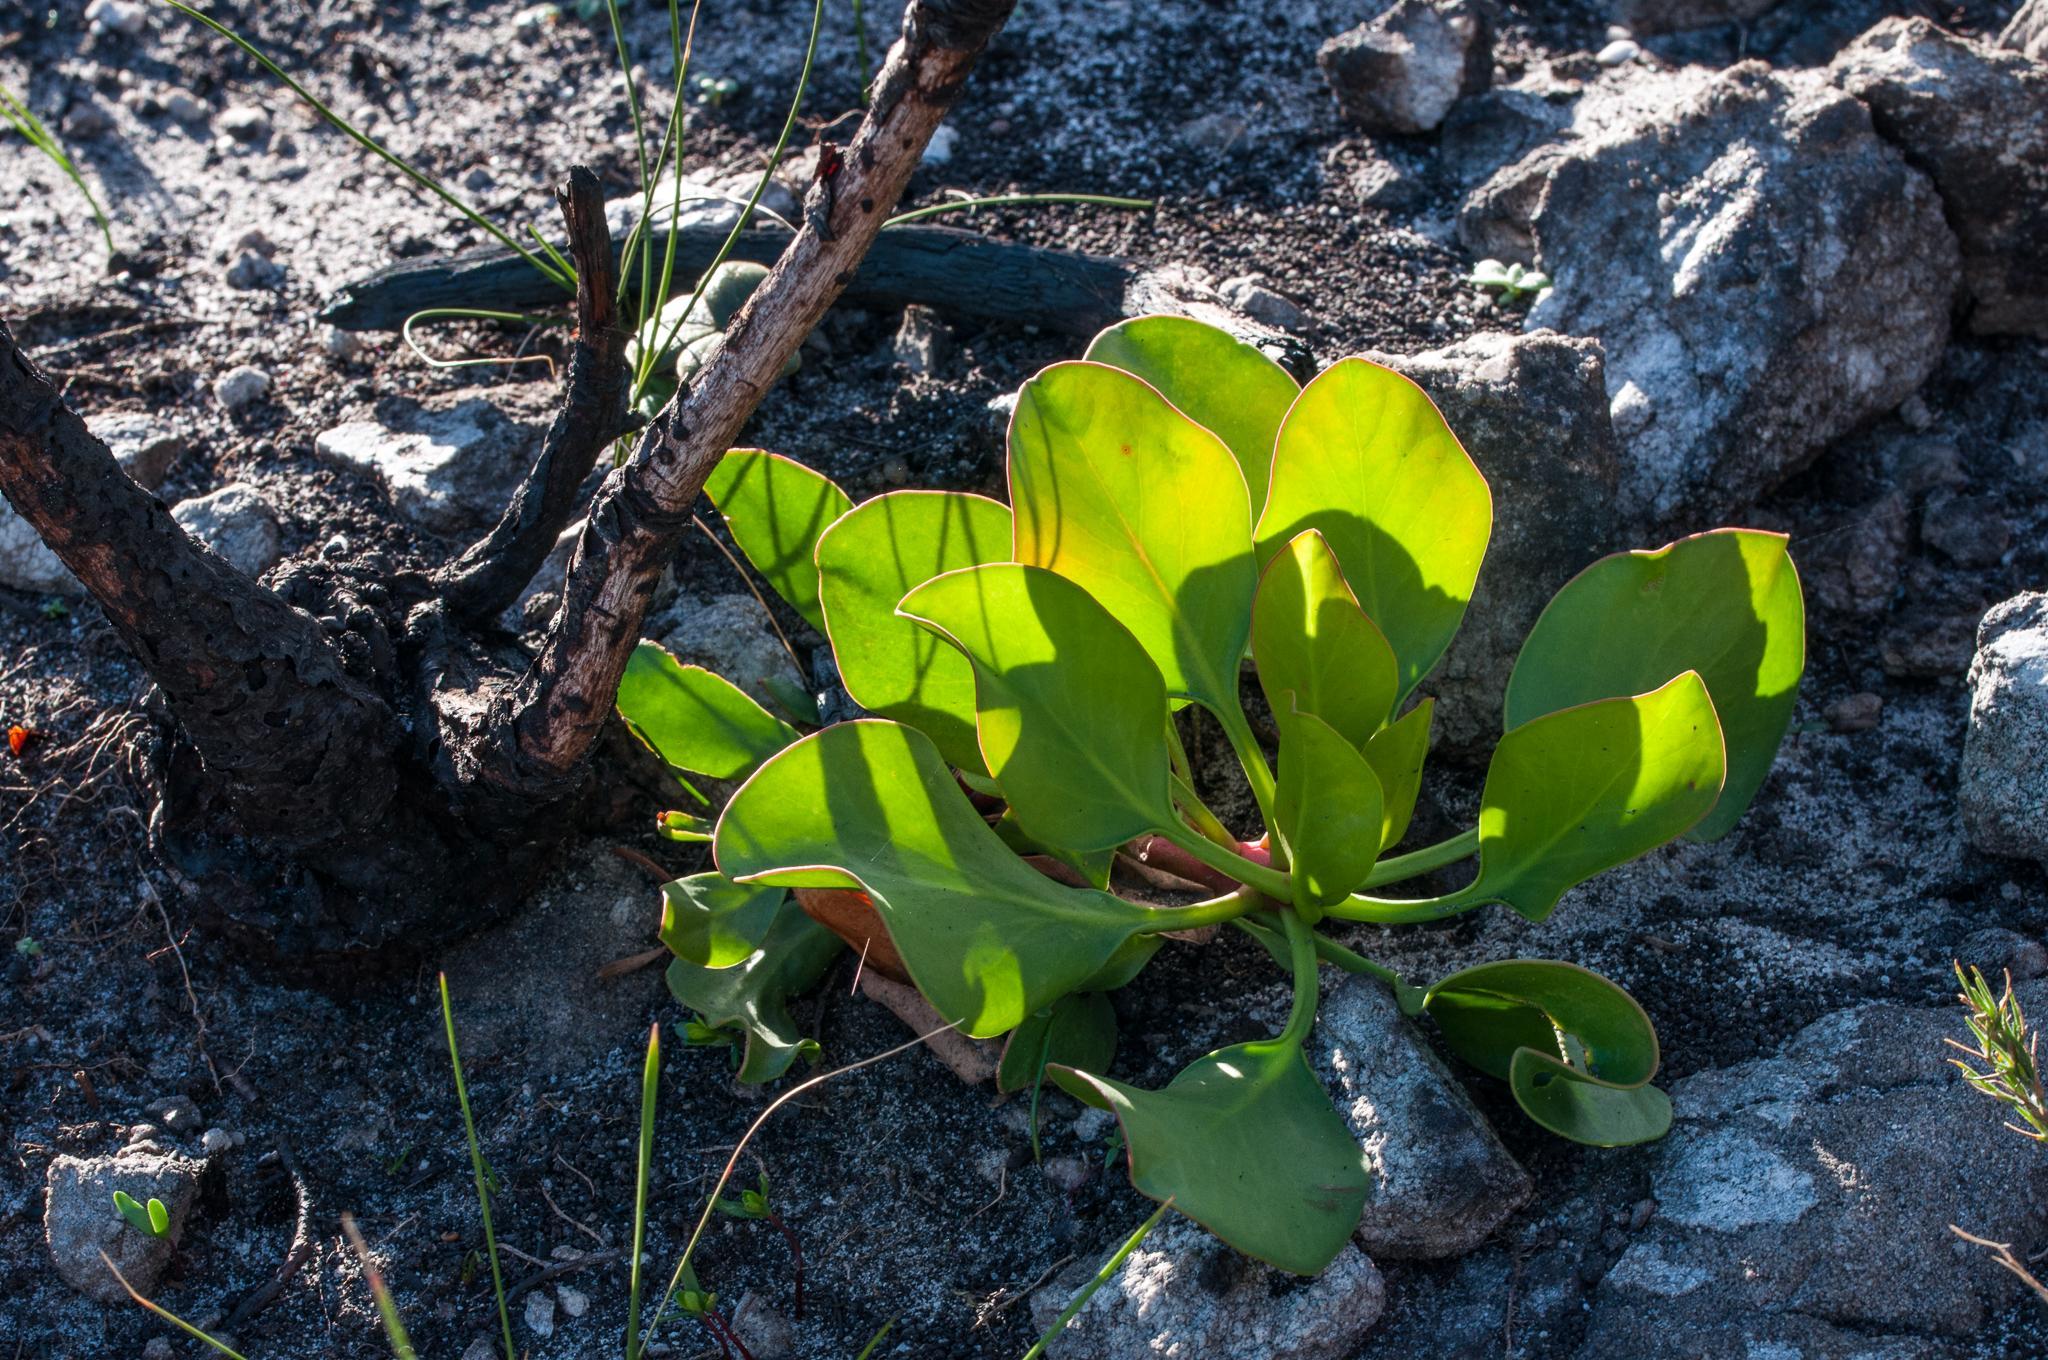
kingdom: Plantae
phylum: Tracheophyta
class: Magnoliopsida
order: Proteales
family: Proteaceae
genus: Protea
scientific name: Protea cynaroides
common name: King protea
